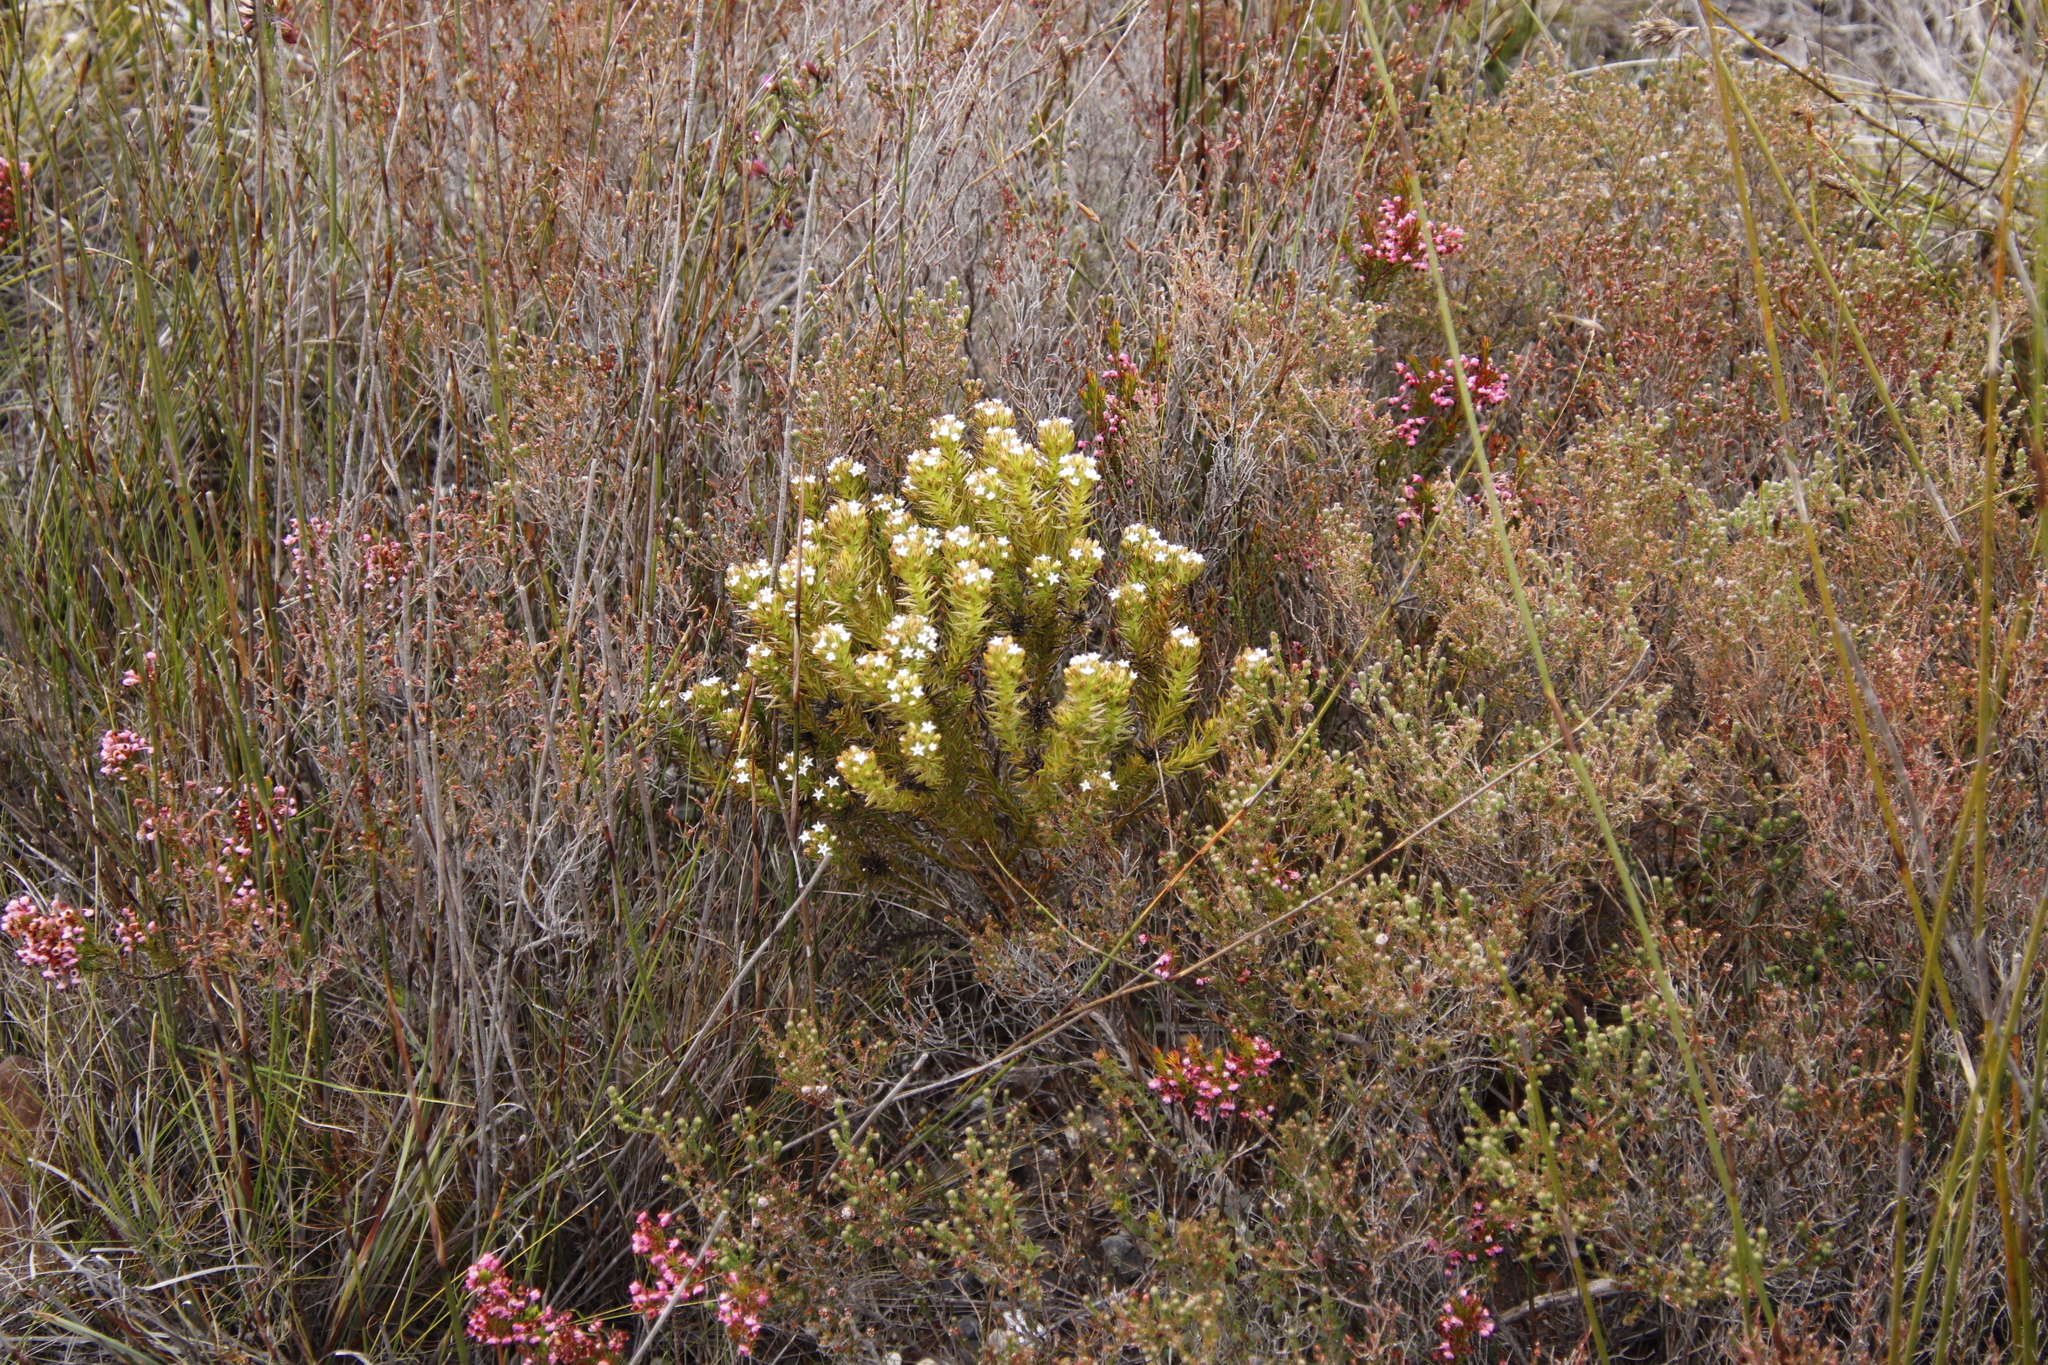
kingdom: Plantae
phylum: Tracheophyta
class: Magnoliopsida
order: Santalales
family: Thesiaceae
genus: Thesium
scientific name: Thesium viridifolium
